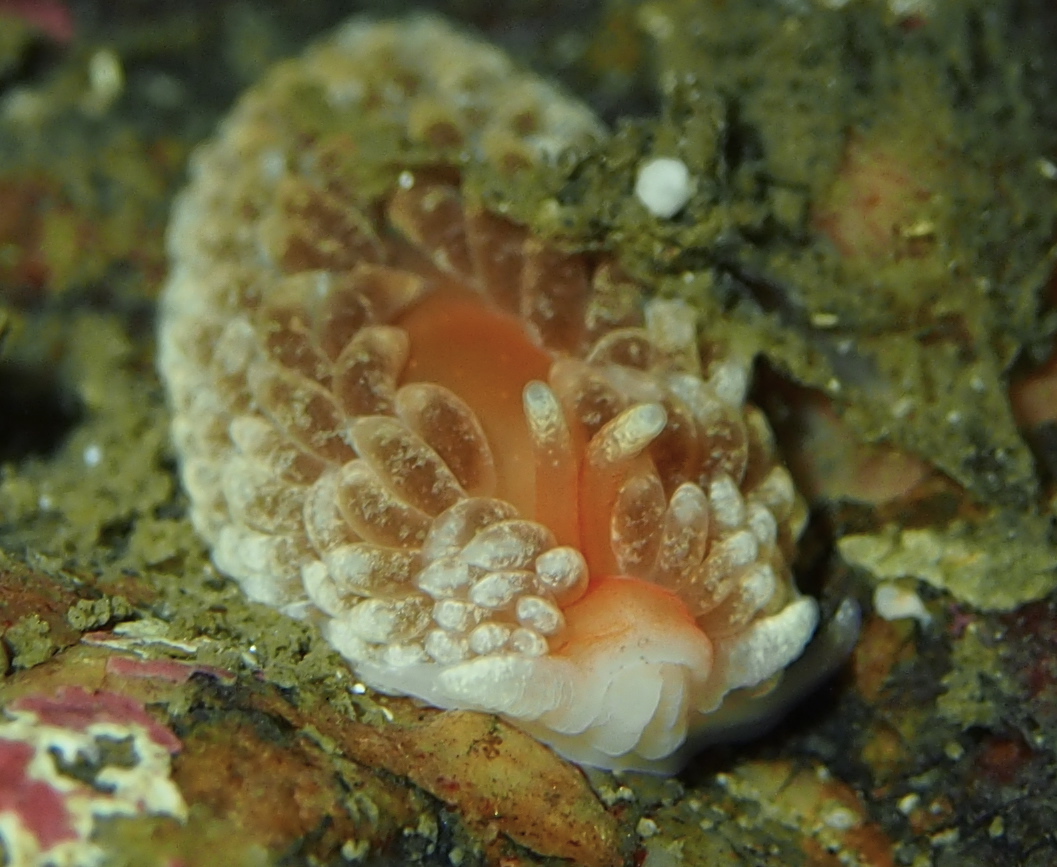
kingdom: Animalia
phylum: Mollusca
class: Gastropoda
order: Nudibranchia
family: Aeolidiidae
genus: Aeolidiella
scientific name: Aeolidiella glauca
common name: Orange-brown aeolid
